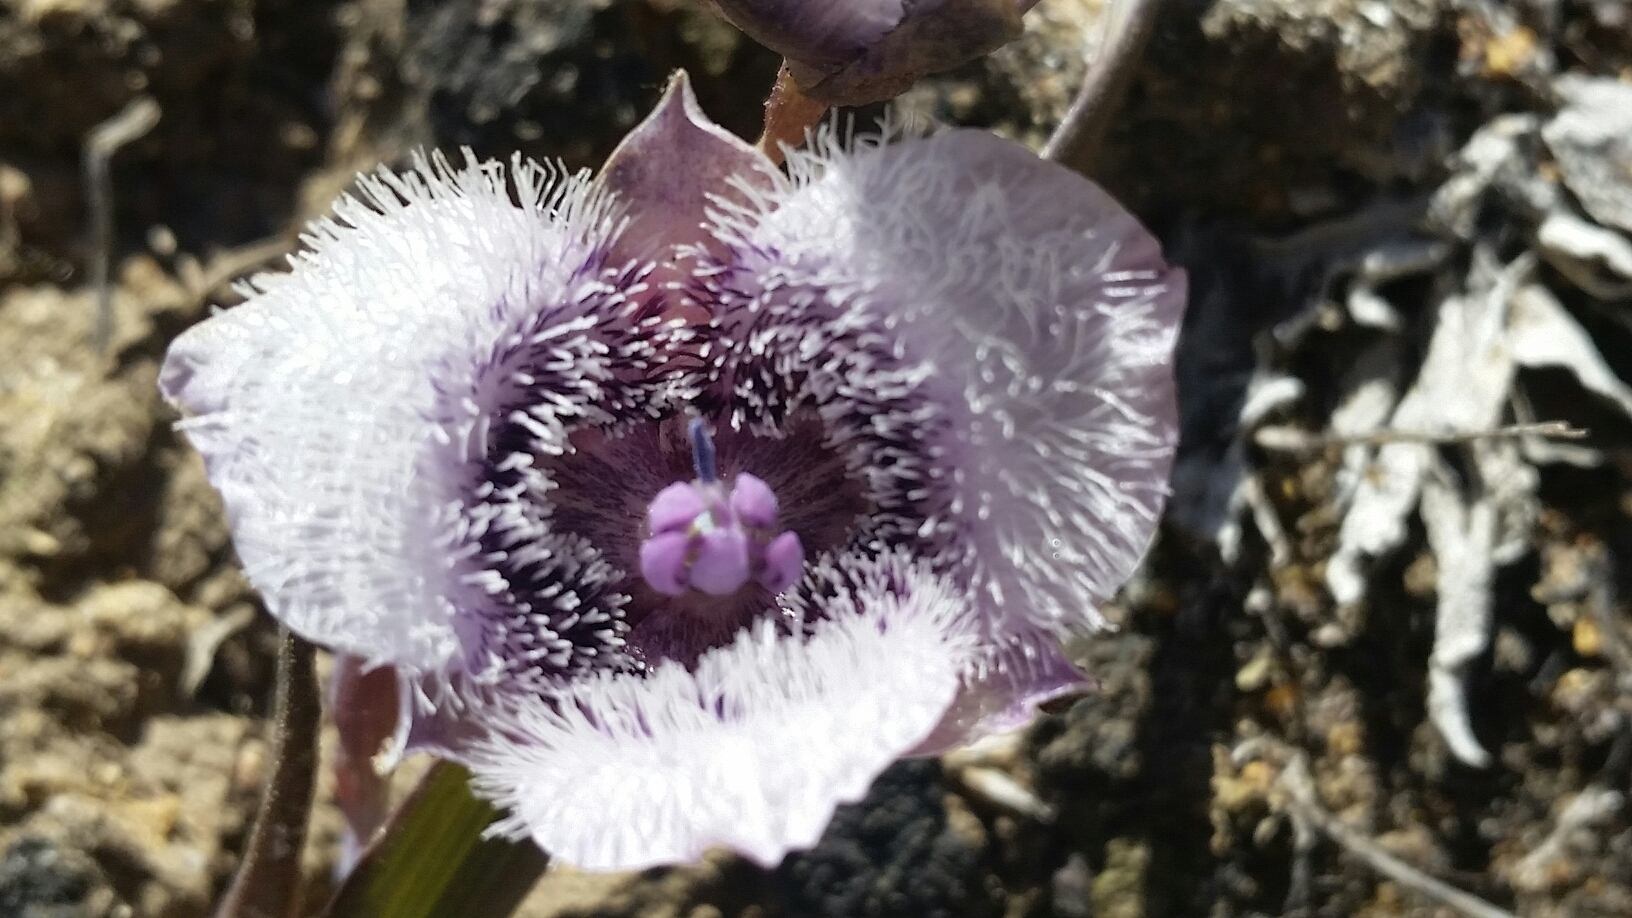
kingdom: Plantae
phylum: Tracheophyta
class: Liliopsida
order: Liliales
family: Liliaceae
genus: Calochortus
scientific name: Calochortus tolmiei
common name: Pussy-ears
